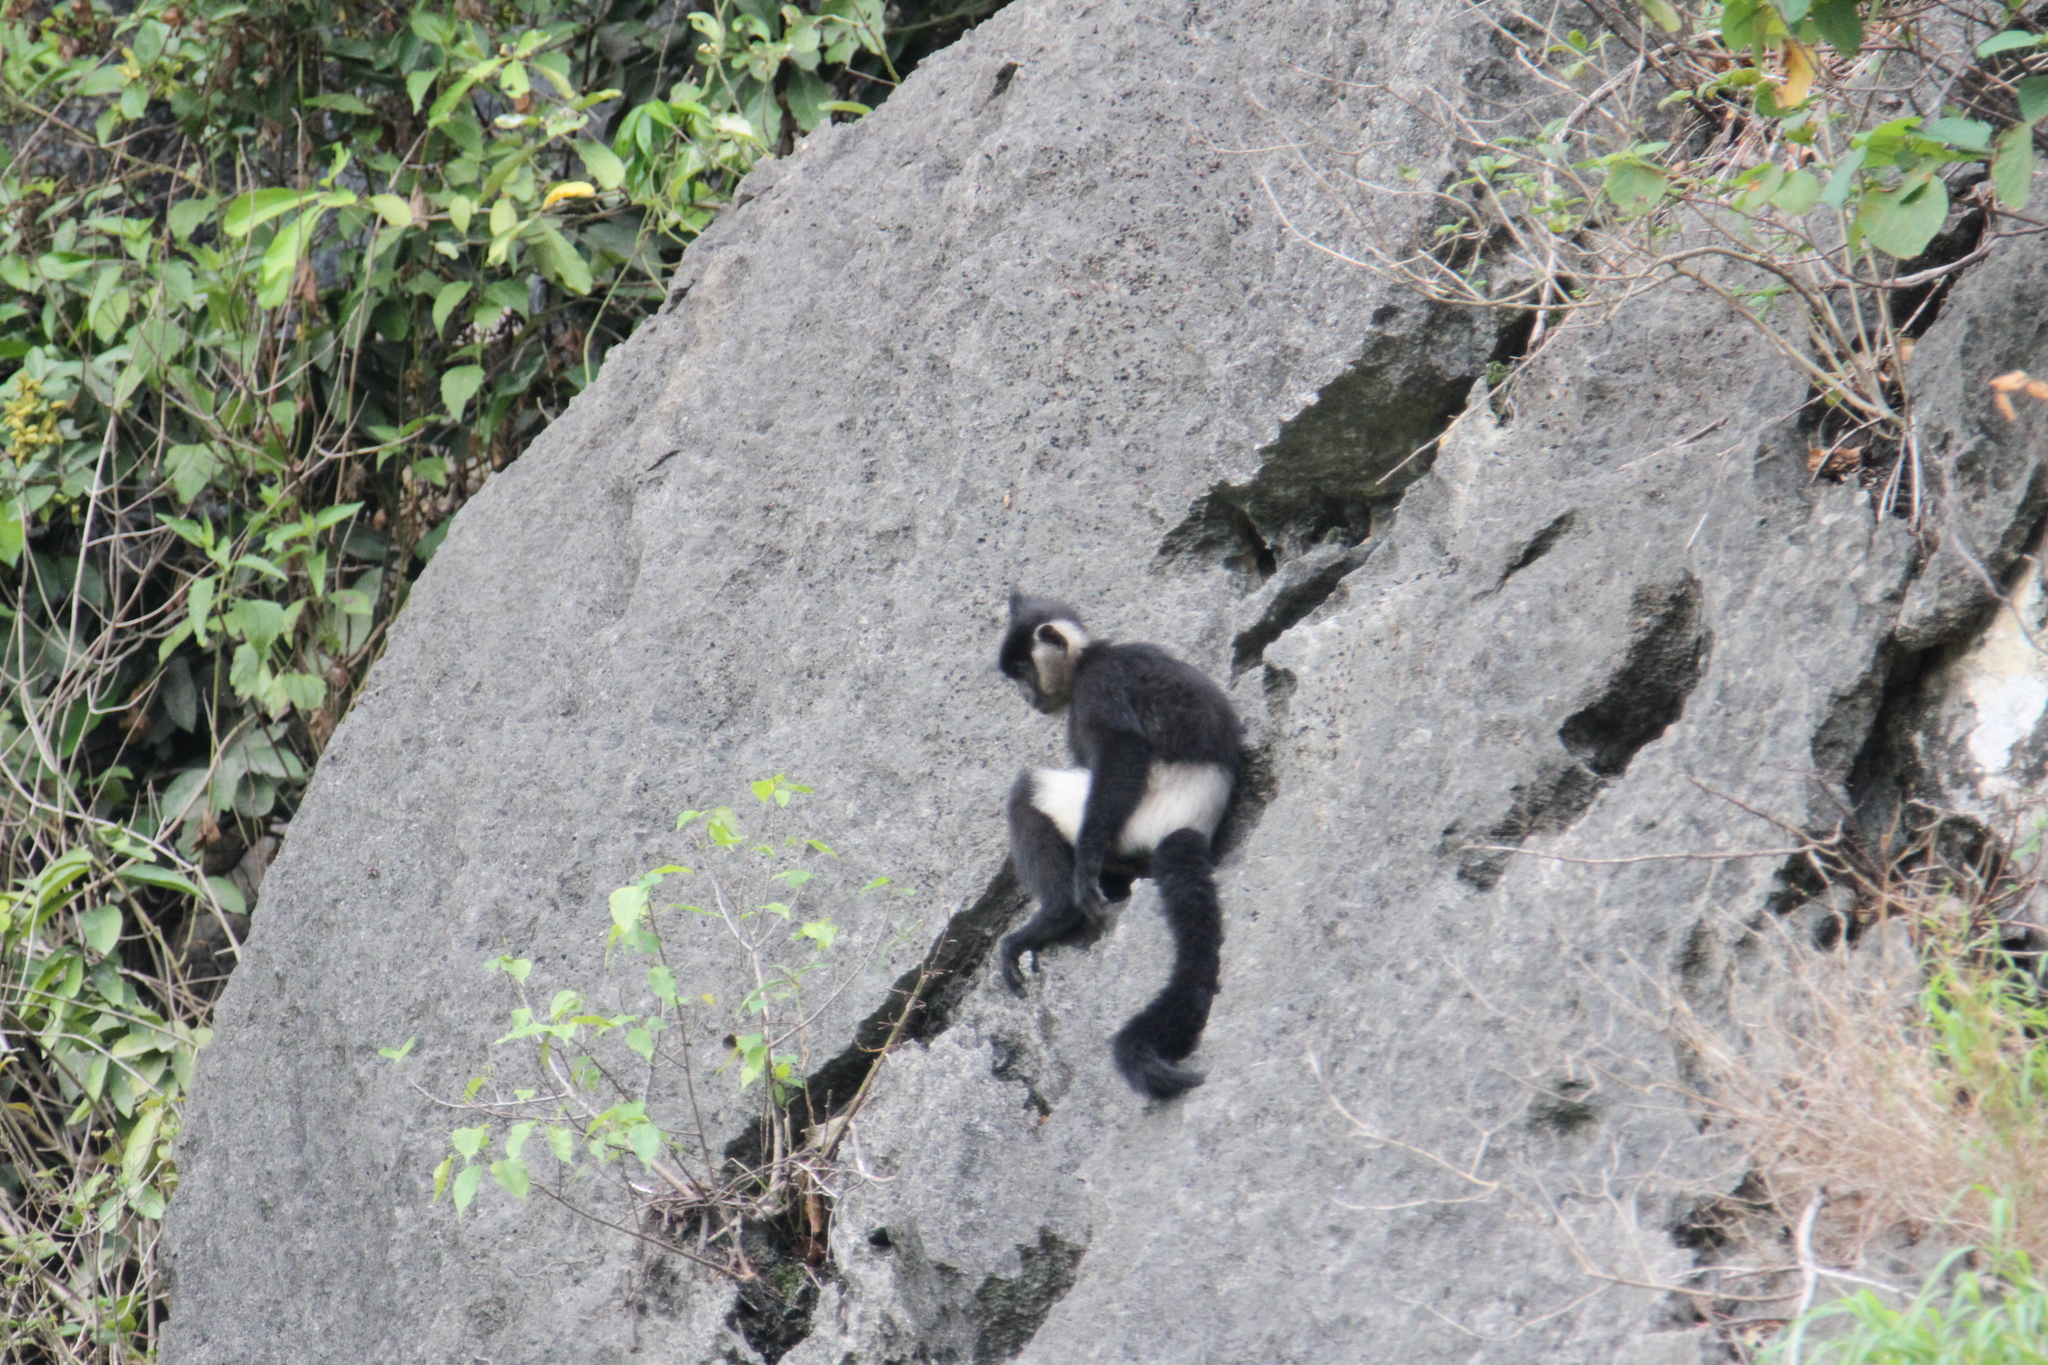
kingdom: Animalia
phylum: Chordata
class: Mammalia
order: Primates
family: Cercopithecidae
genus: Trachypithecus
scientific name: Trachypithecus delacouri
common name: Delacour's langur
